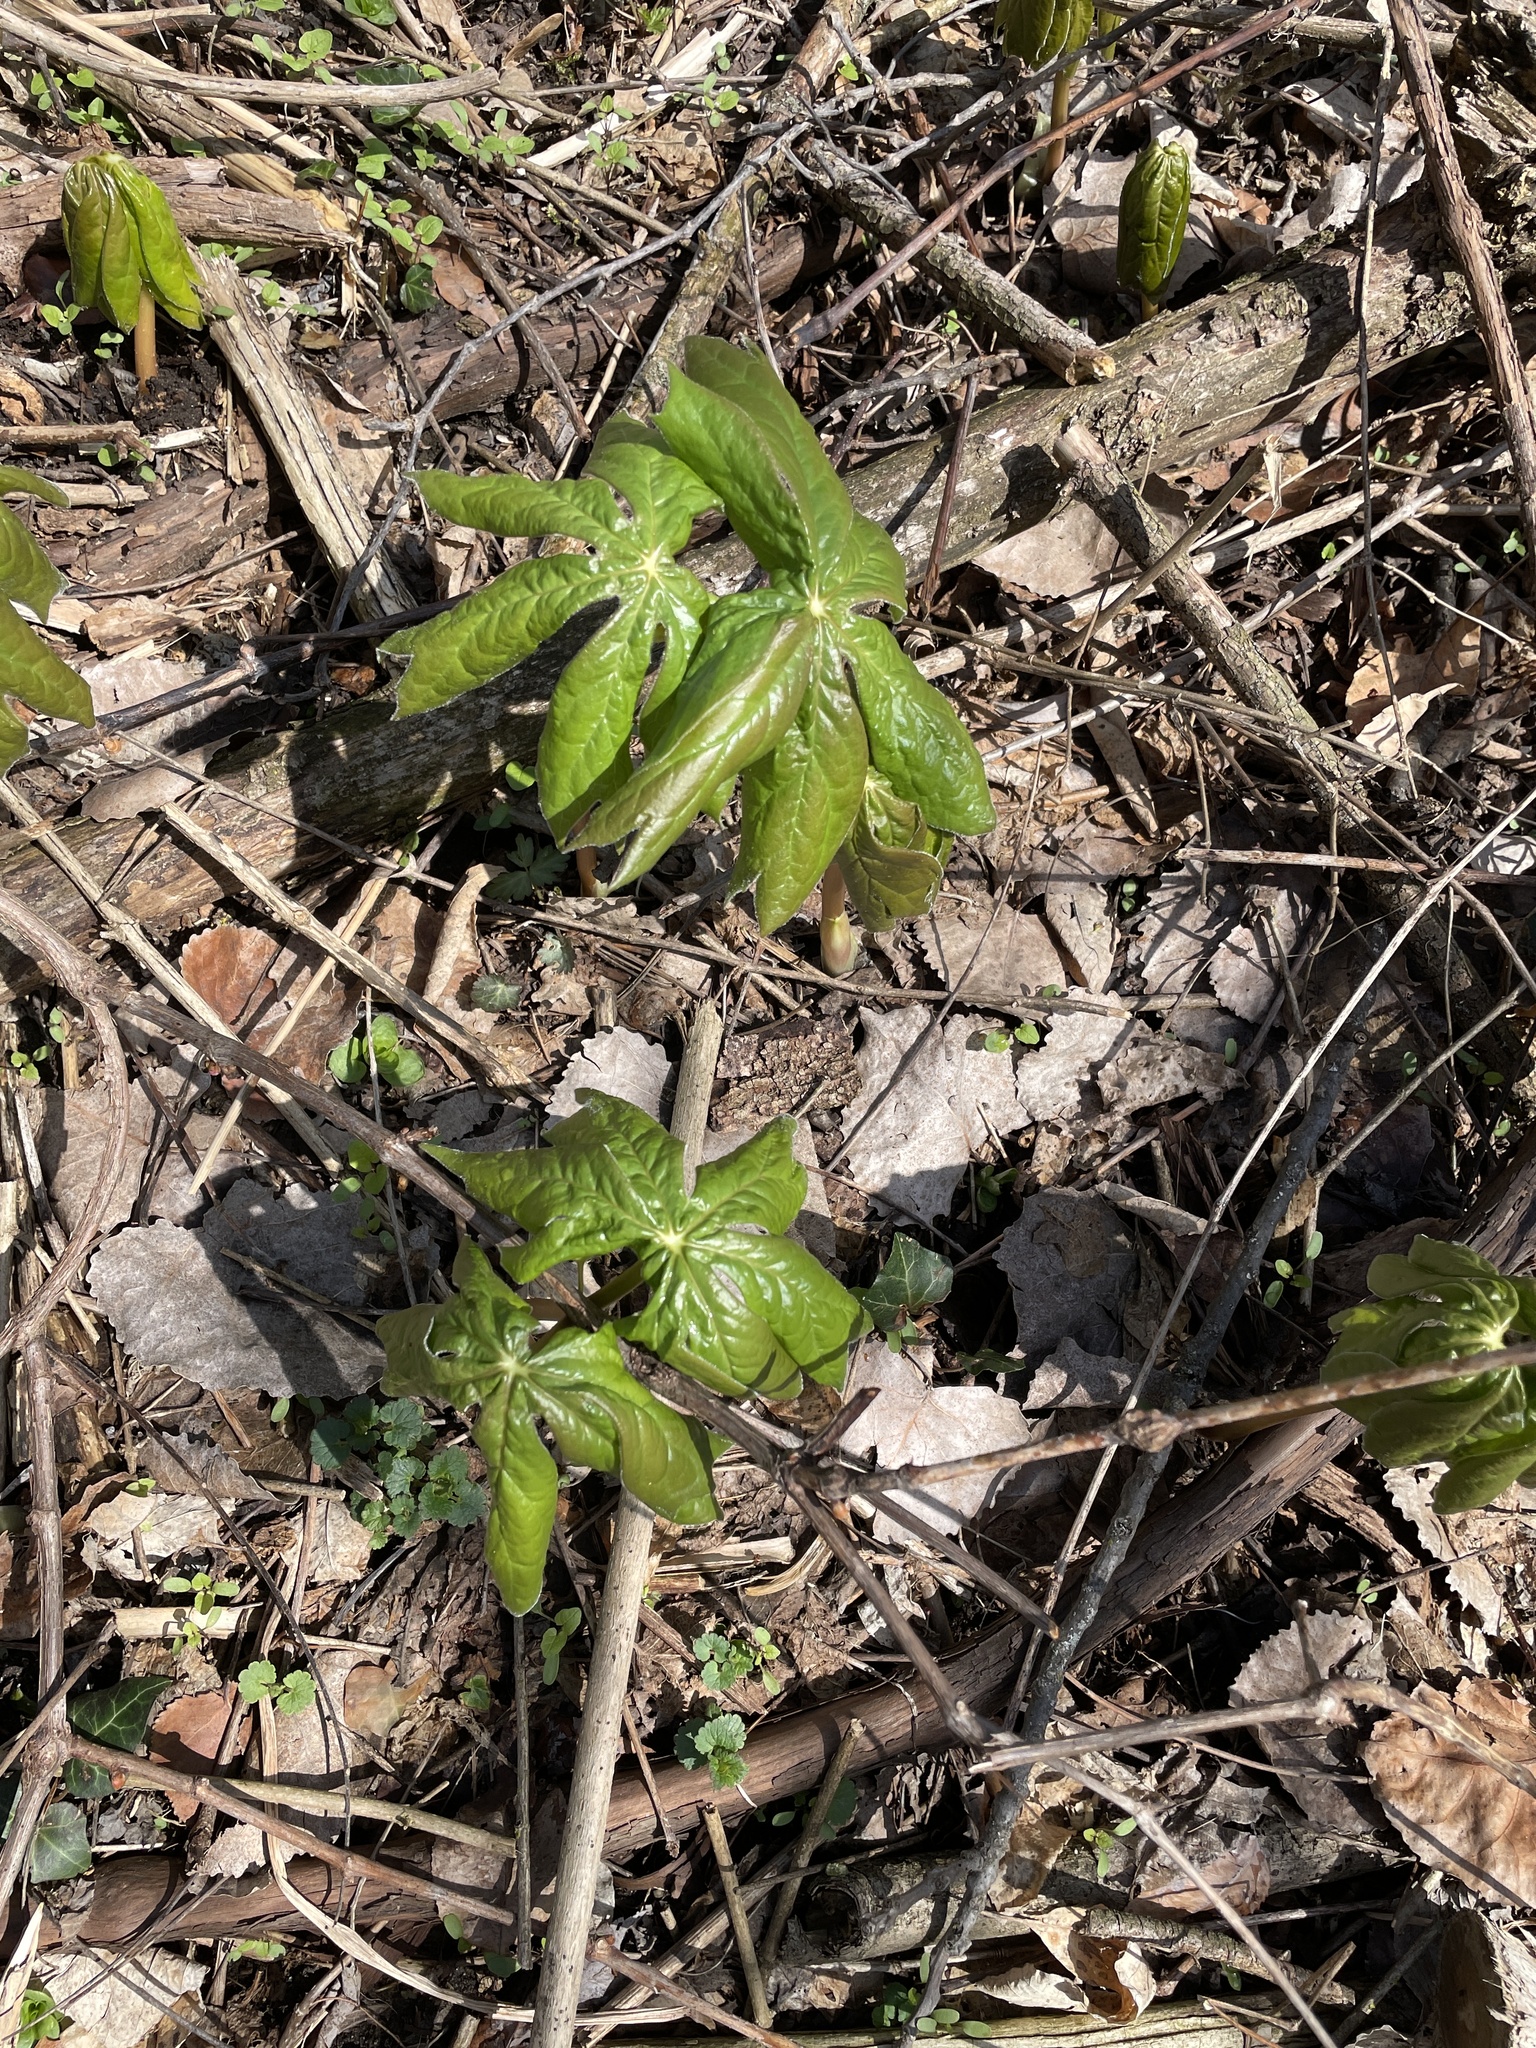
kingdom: Plantae
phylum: Tracheophyta
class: Magnoliopsida
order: Ranunculales
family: Berberidaceae
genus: Podophyllum
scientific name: Podophyllum peltatum
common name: Wild mandrake
